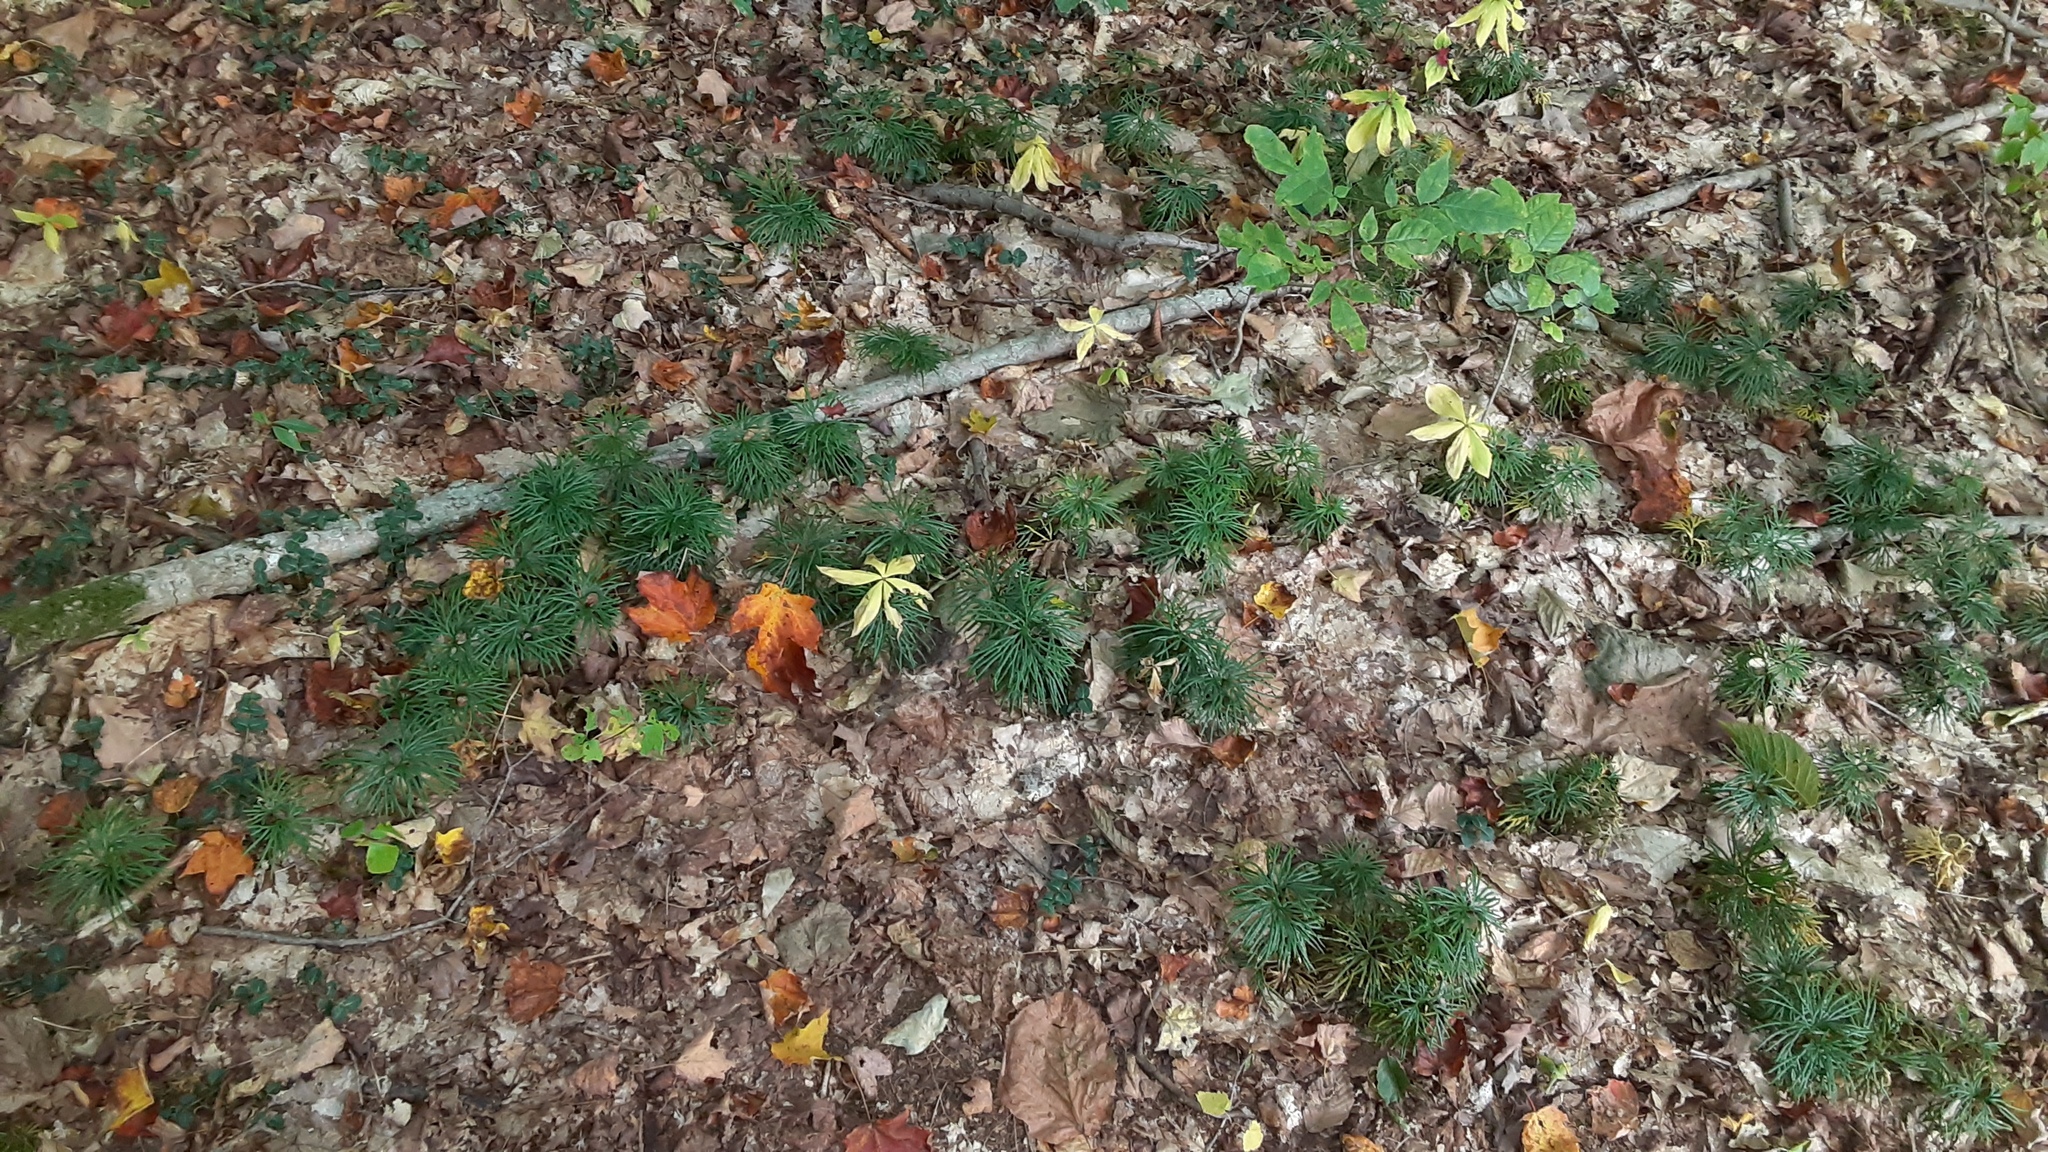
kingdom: Plantae
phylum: Tracheophyta
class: Lycopodiopsida
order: Lycopodiales
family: Lycopodiaceae
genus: Diphasiastrum
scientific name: Diphasiastrum digitatum
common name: Southern running-pine
